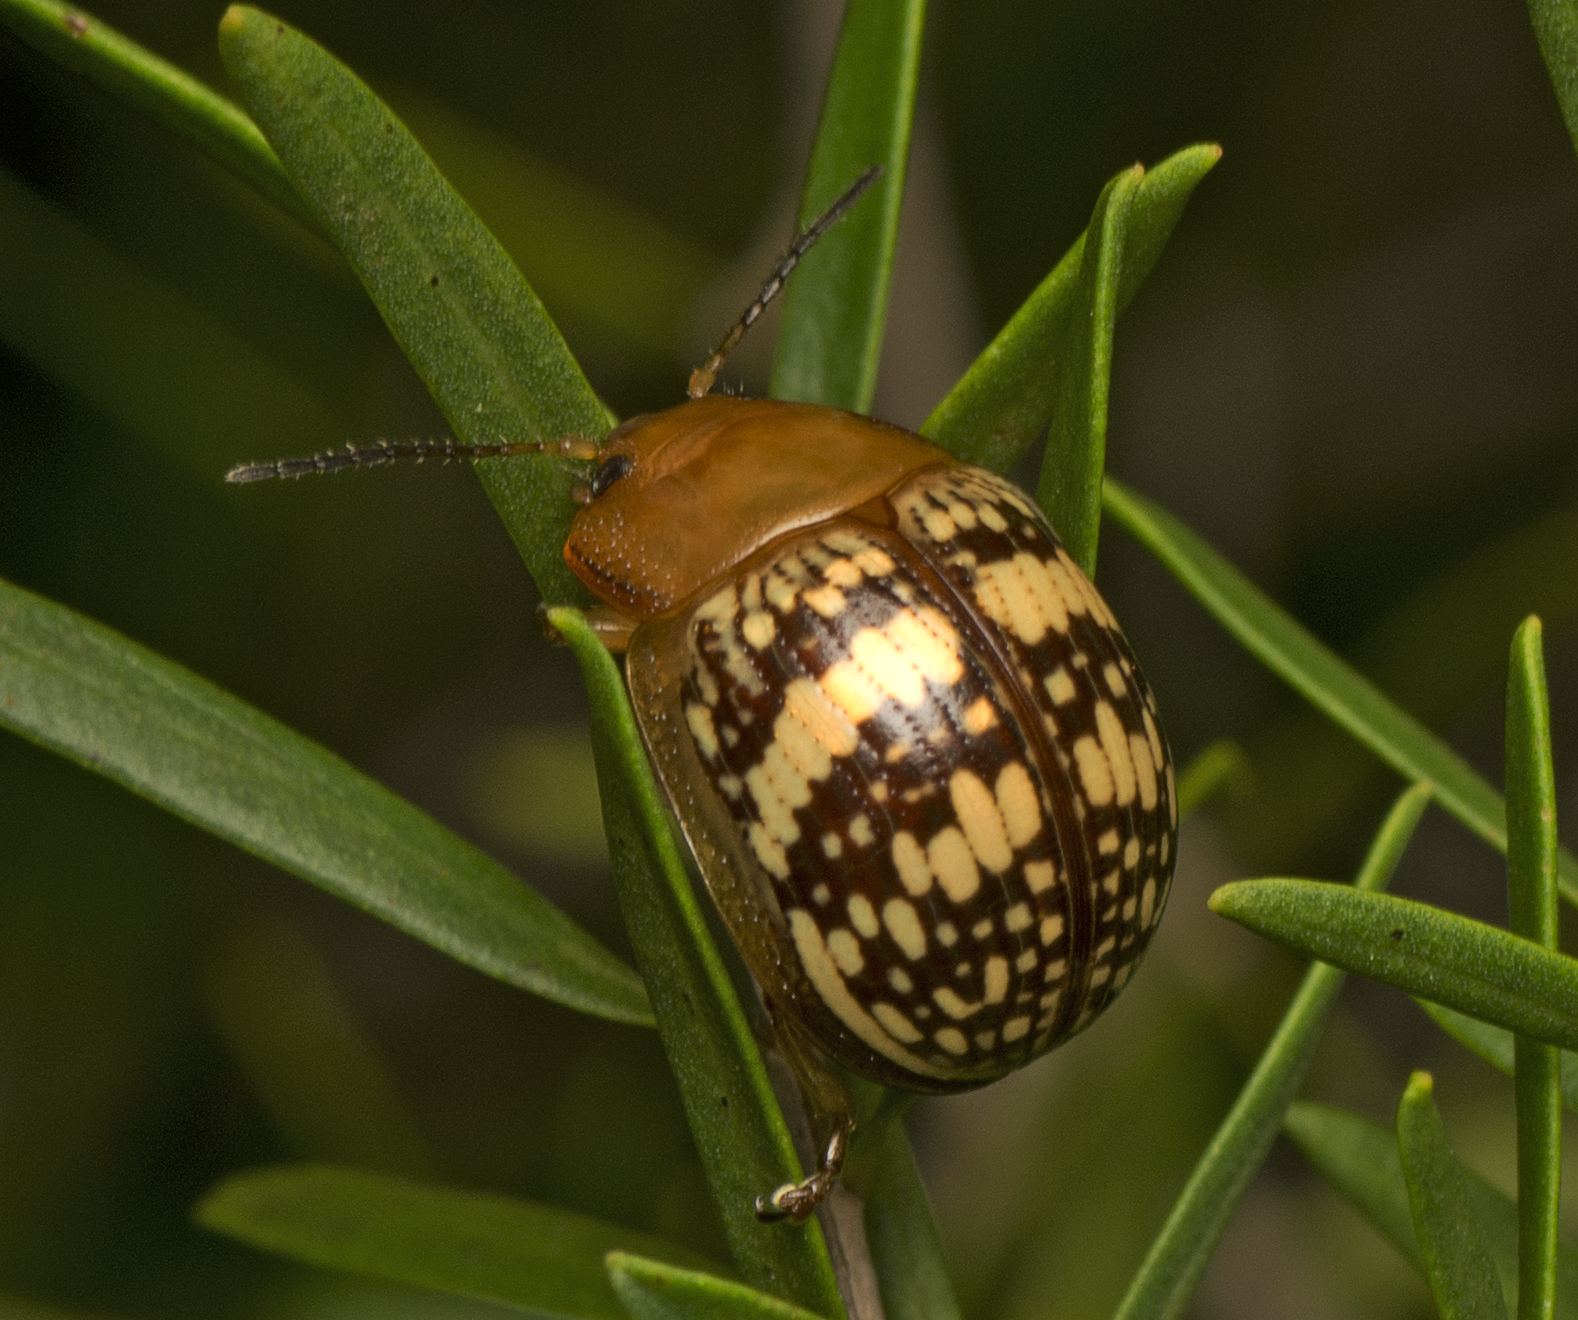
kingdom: Animalia
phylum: Arthropoda
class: Insecta
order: Coleoptera
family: Chrysomelidae
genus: Paropsis
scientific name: Paropsis
